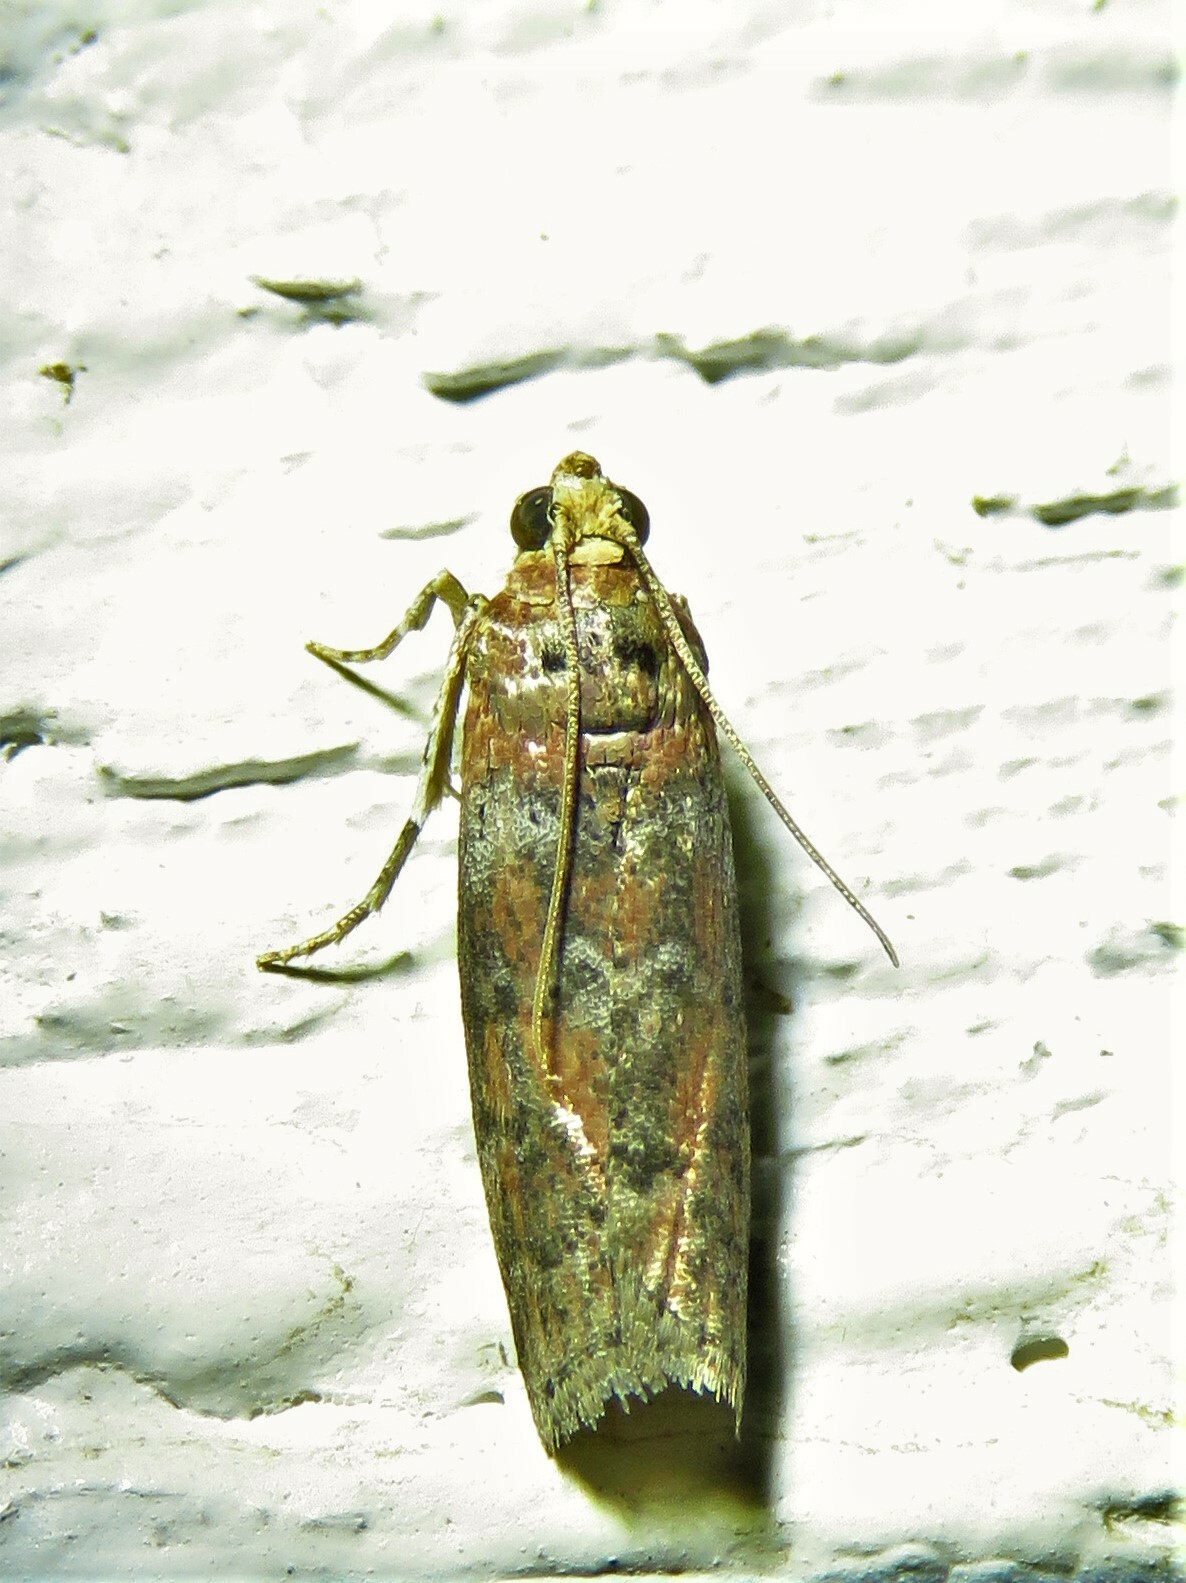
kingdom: Animalia
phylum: Arthropoda
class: Insecta
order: Lepidoptera
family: Pyralidae
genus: Sciota
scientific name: Sciota
